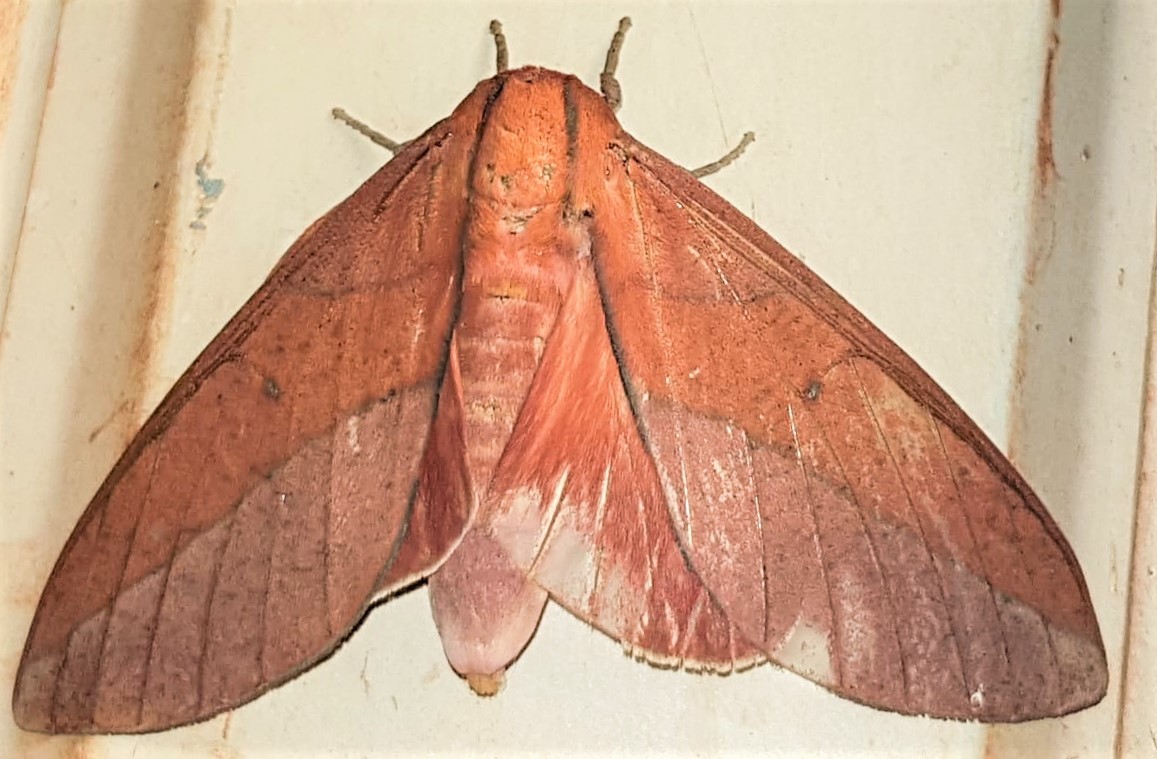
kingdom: Animalia
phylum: Arthropoda
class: Insecta
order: Lepidoptera
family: Saturniidae
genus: Adeloneivaia
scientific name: Adeloneivaia boisduvalii
